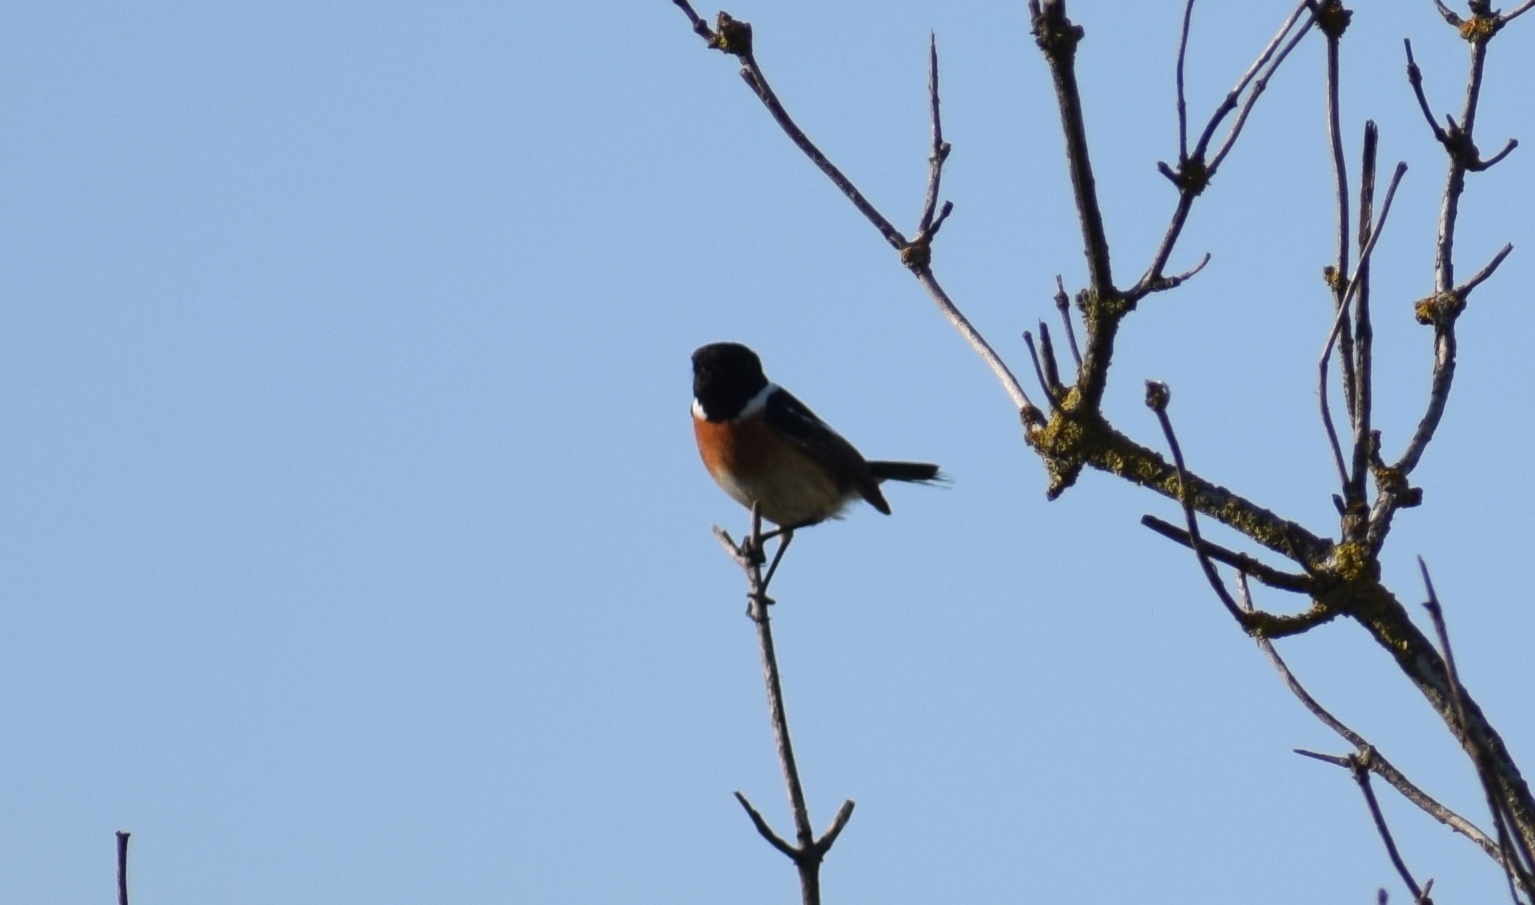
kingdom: Animalia
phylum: Chordata
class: Aves
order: Passeriformes
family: Muscicapidae
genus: Saxicola
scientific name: Saxicola rubicola
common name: European stonechat
